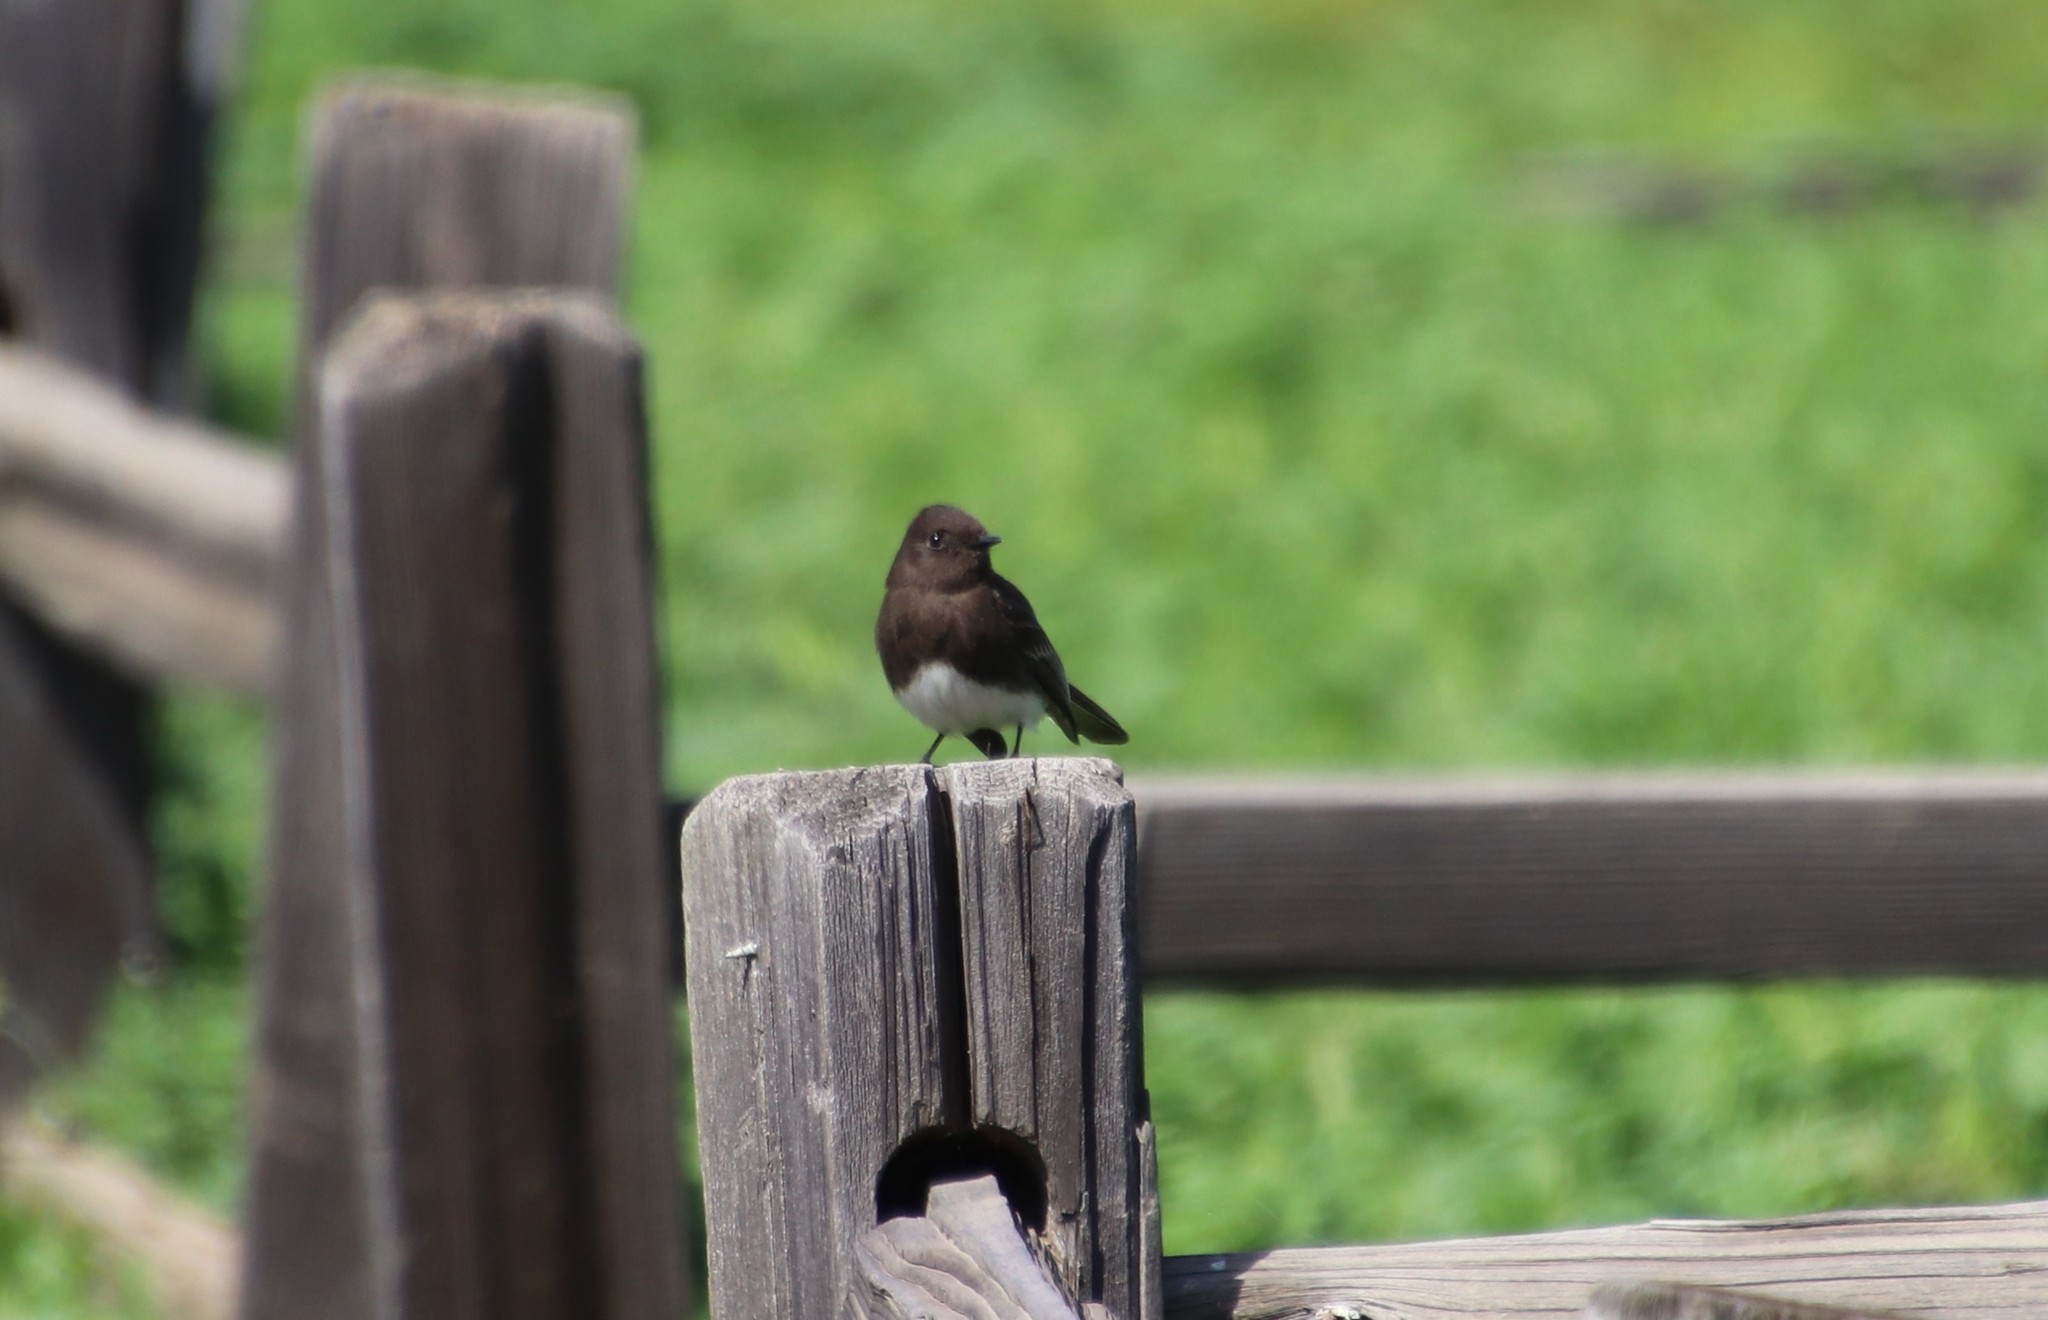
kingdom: Animalia
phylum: Chordata
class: Aves
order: Passeriformes
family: Tyrannidae
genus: Sayornis
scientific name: Sayornis nigricans
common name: Black phoebe
